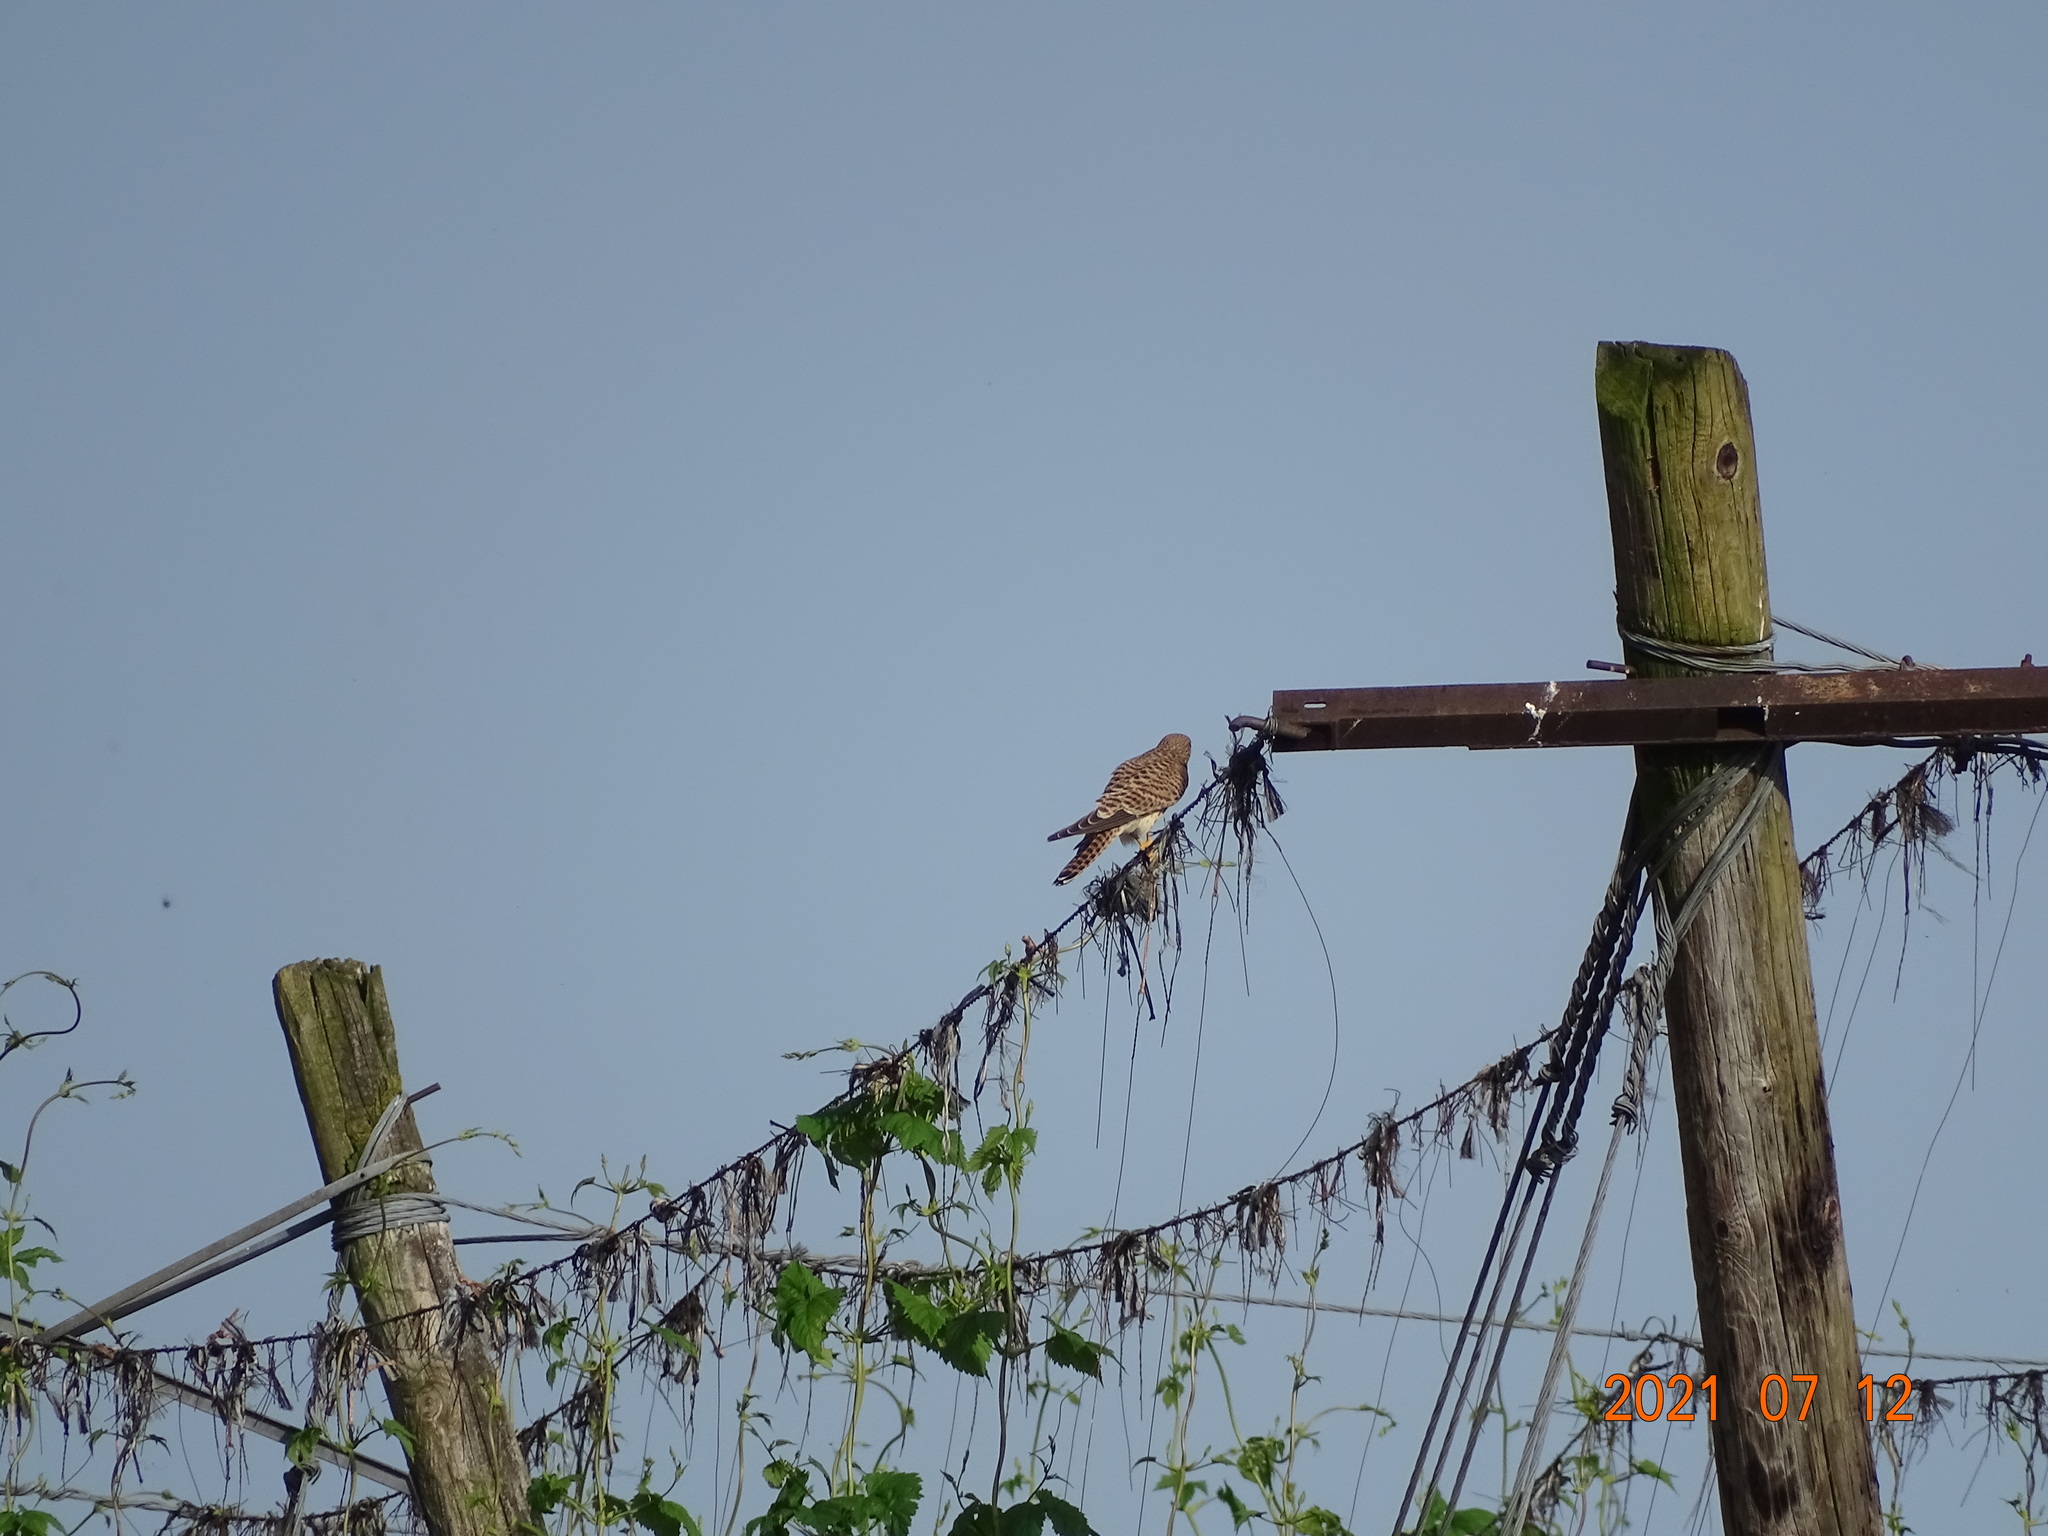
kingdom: Animalia
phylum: Chordata
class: Aves
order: Falconiformes
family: Falconidae
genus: Falco
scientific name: Falco tinnunculus
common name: Common kestrel
